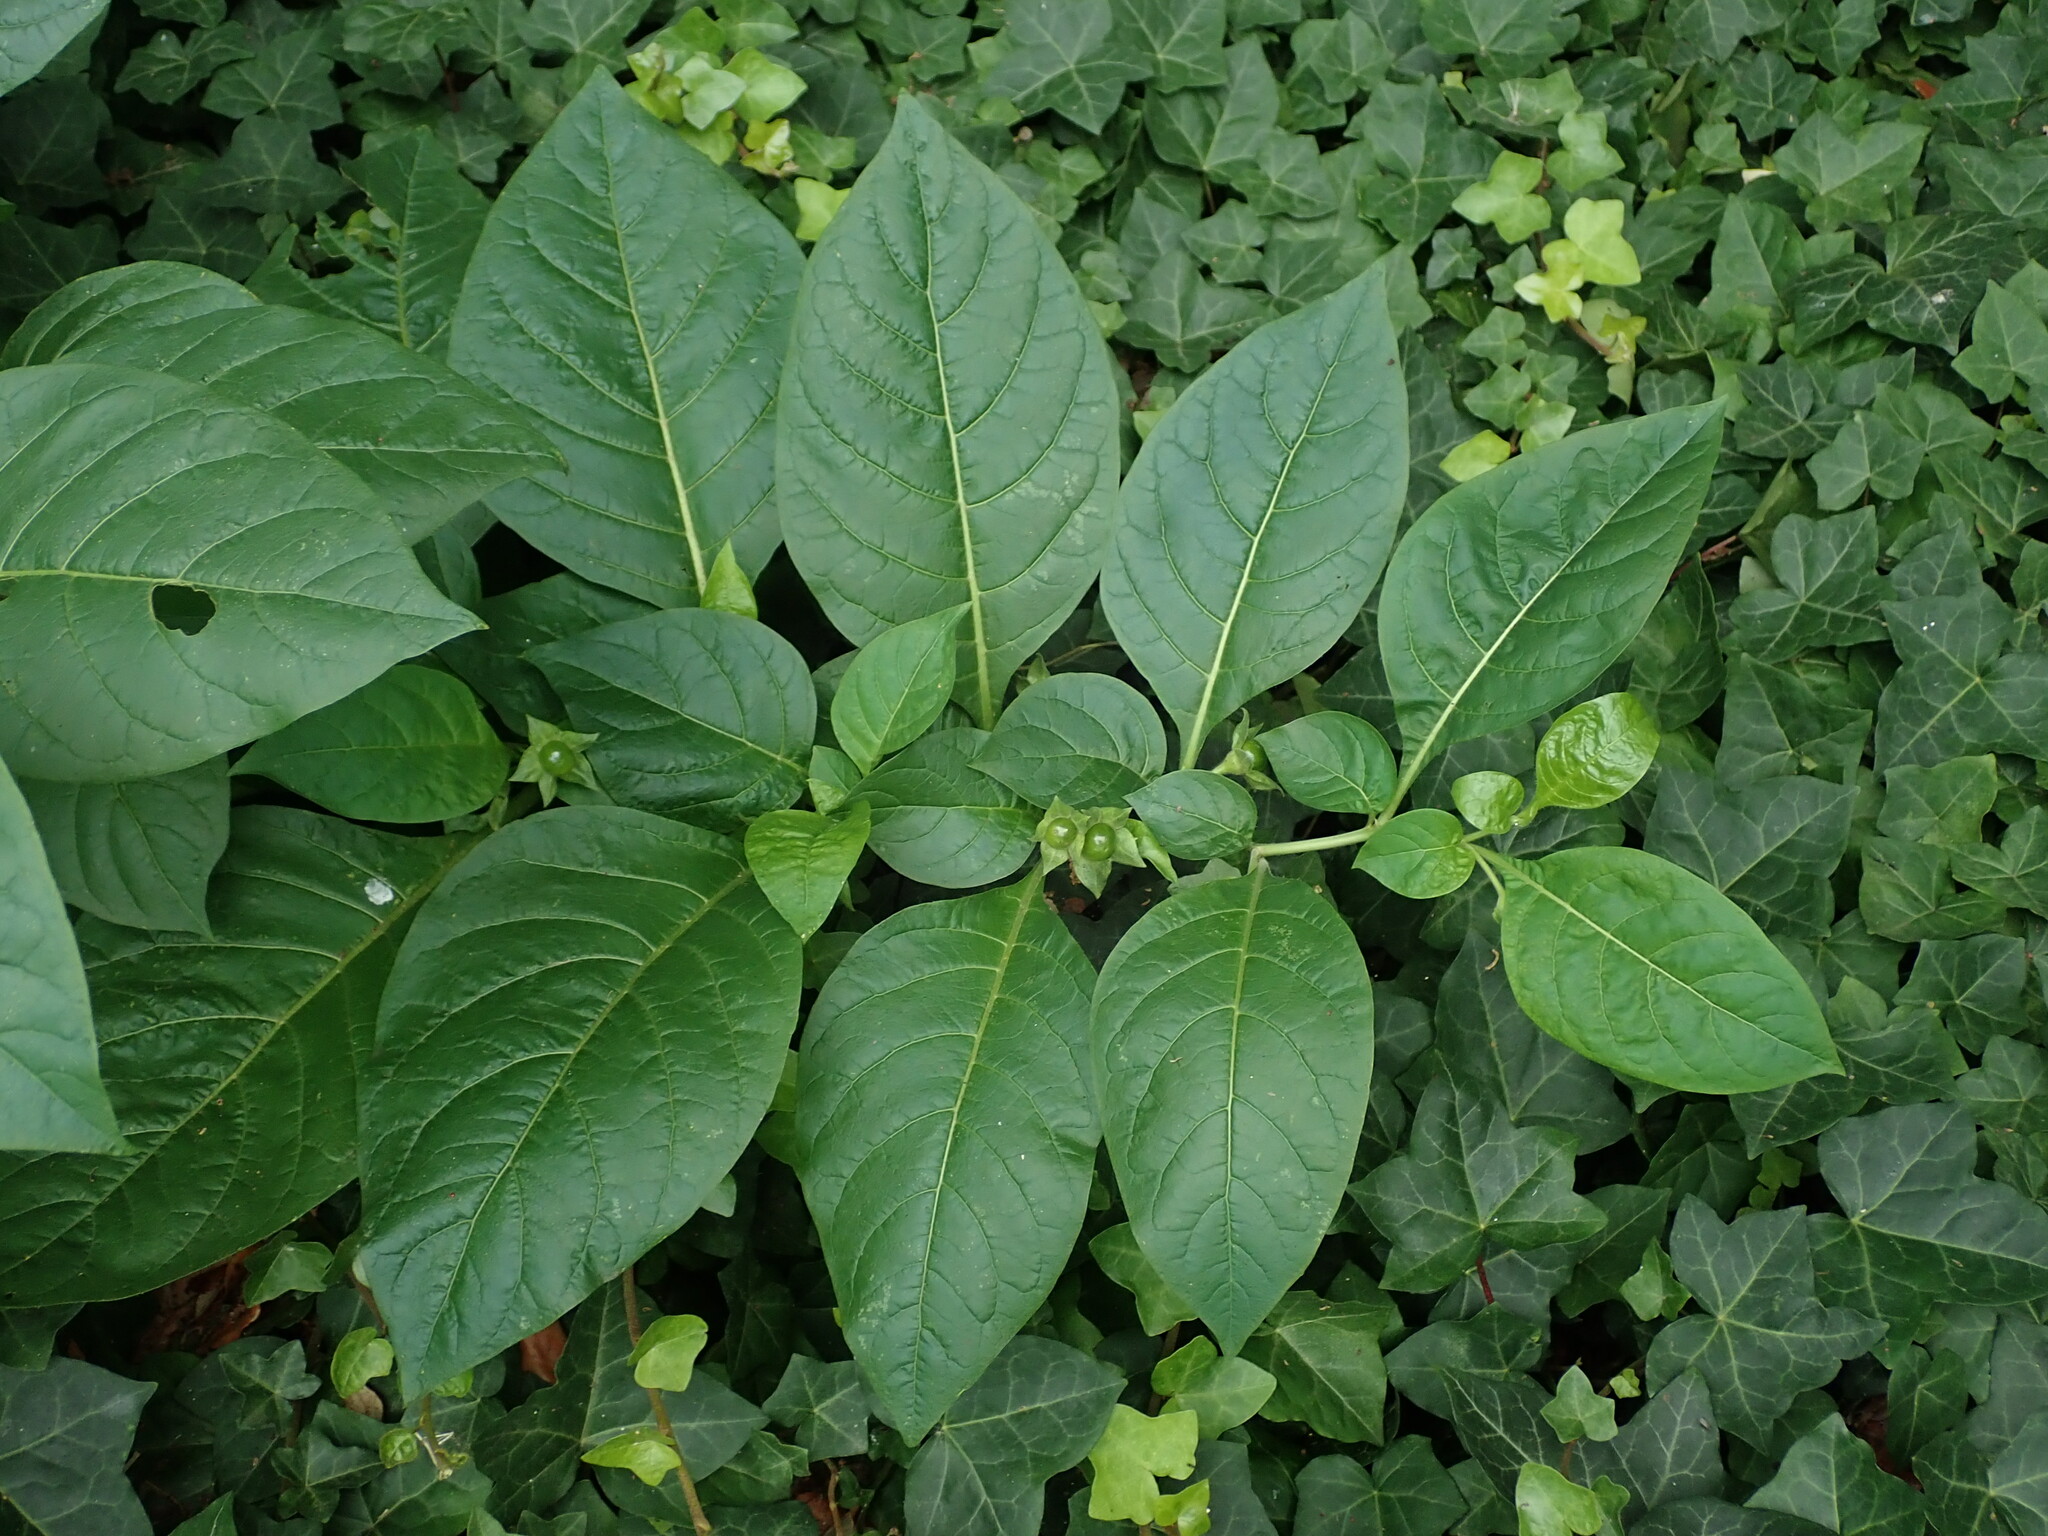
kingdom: Plantae
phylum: Tracheophyta
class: Magnoliopsida
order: Solanales
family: Solanaceae
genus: Atropa
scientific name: Atropa belladonna
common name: Deadly nightshade
